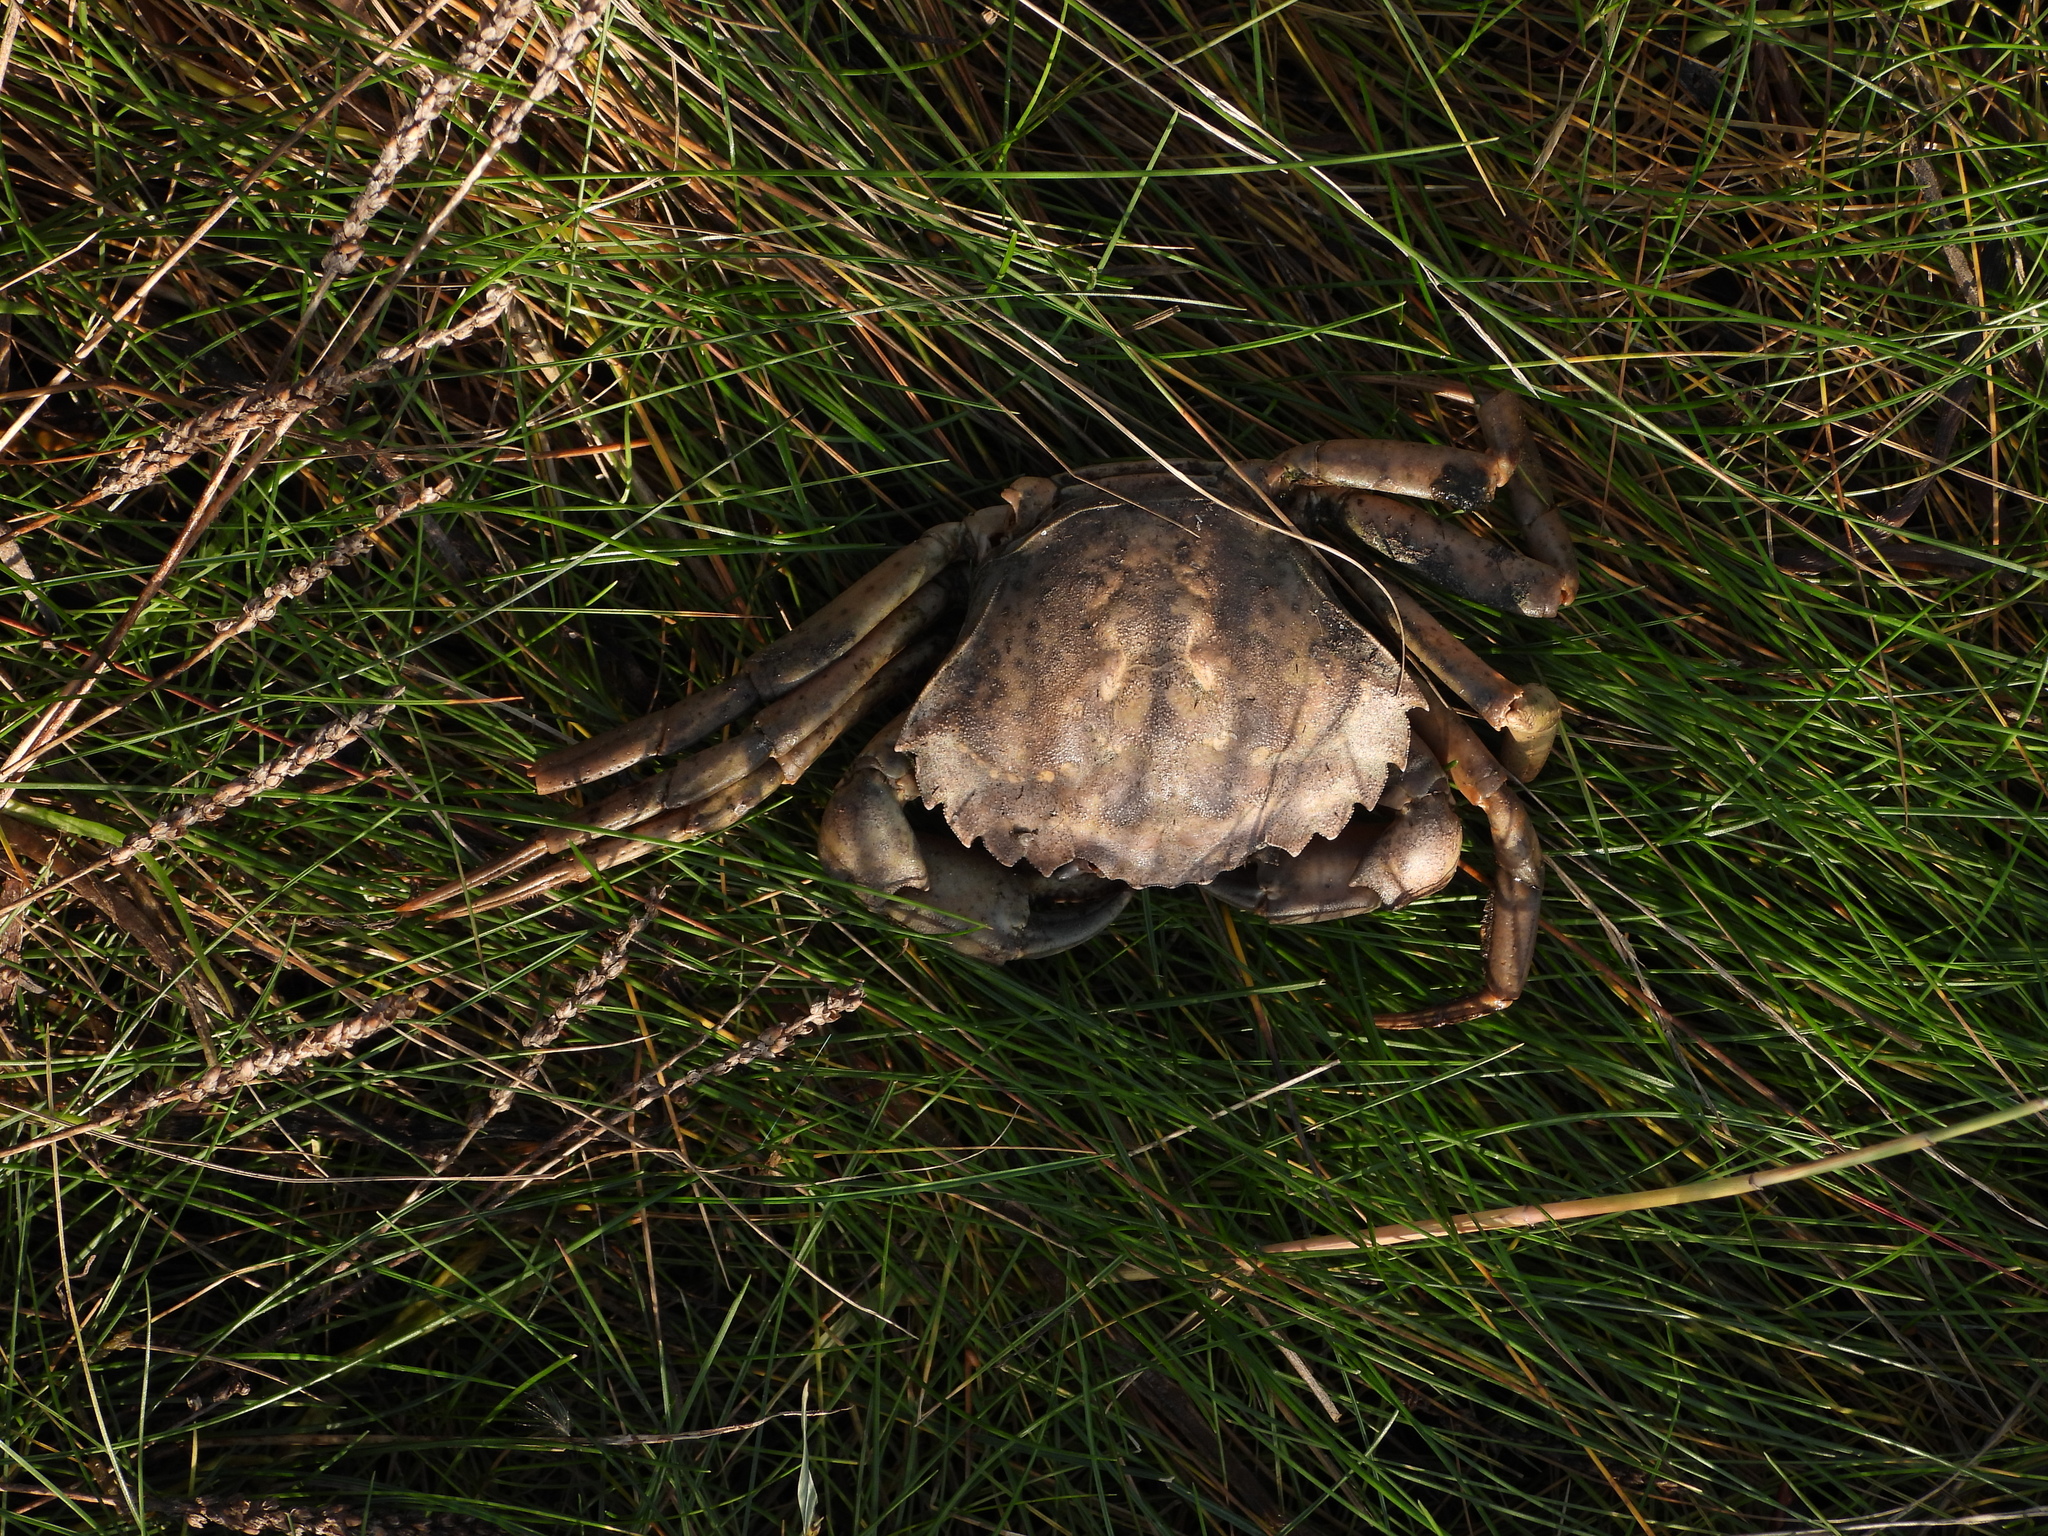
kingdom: Animalia
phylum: Arthropoda
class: Malacostraca
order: Decapoda
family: Carcinidae
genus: Carcinus
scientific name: Carcinus maenas
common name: European green crab
